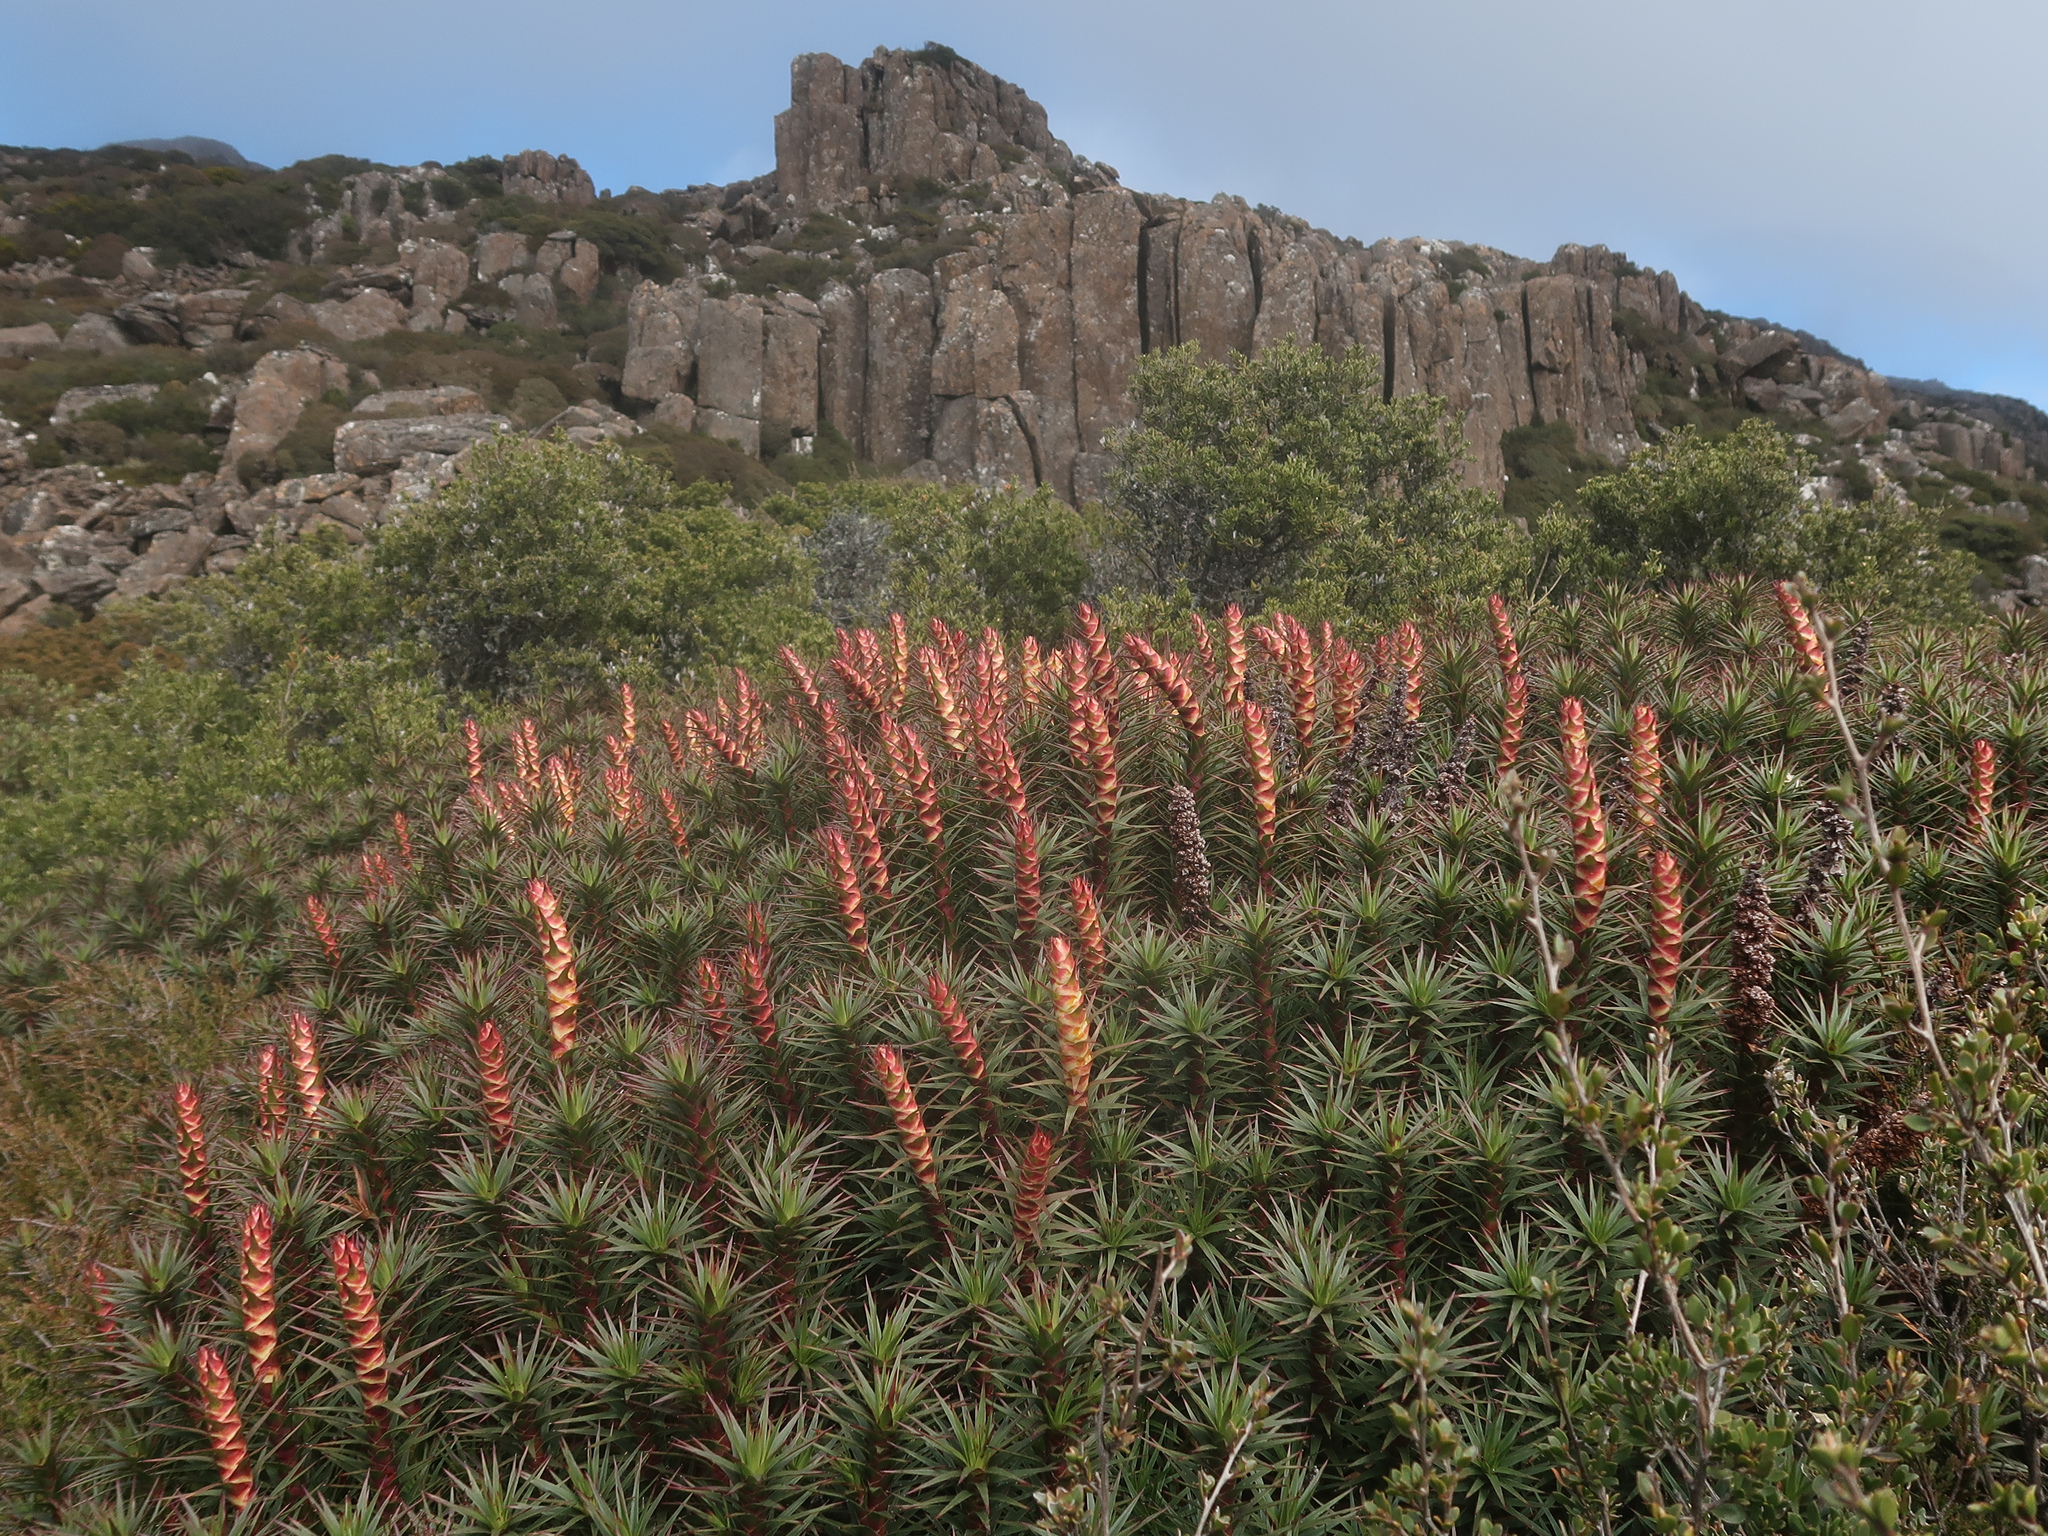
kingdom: Plantae
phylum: Tracheophyta
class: Magnoliopsida
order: Ericales
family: Ericaceae
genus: Dracophyllum
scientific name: Dracophyllum persistentifolium
